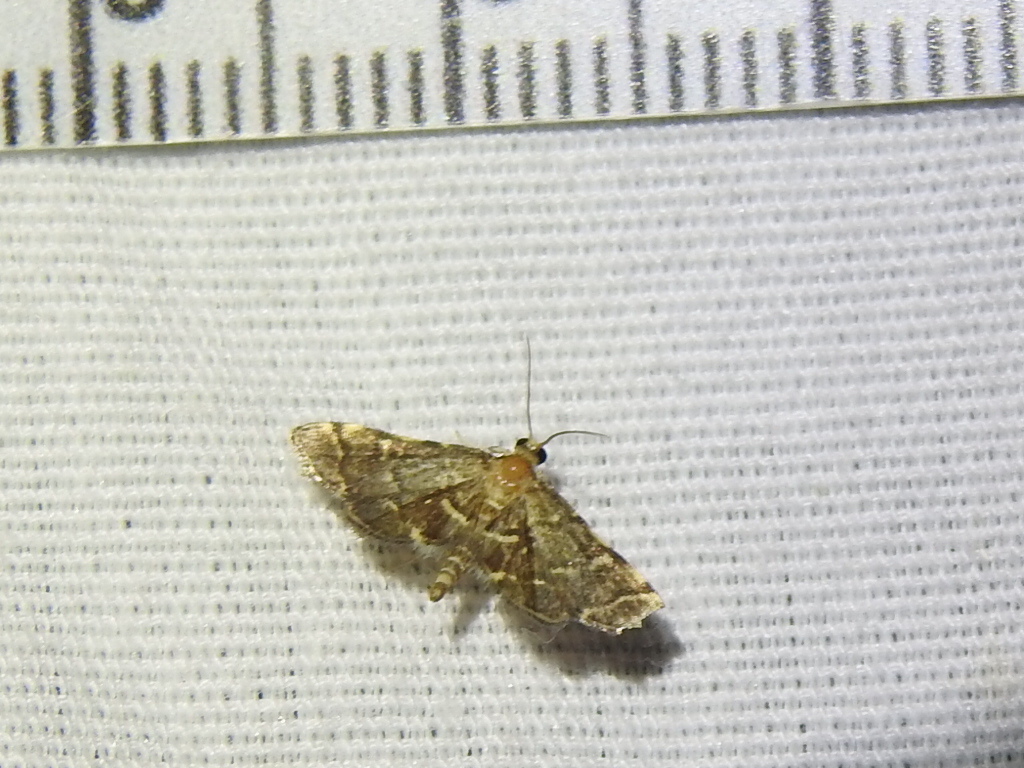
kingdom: Animalia
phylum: Arthropoda
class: Insecta
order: Lepidoptera
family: Crambidae
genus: Anageshna
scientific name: Anageshna primordialis
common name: Yellow-spotted webworm moth
